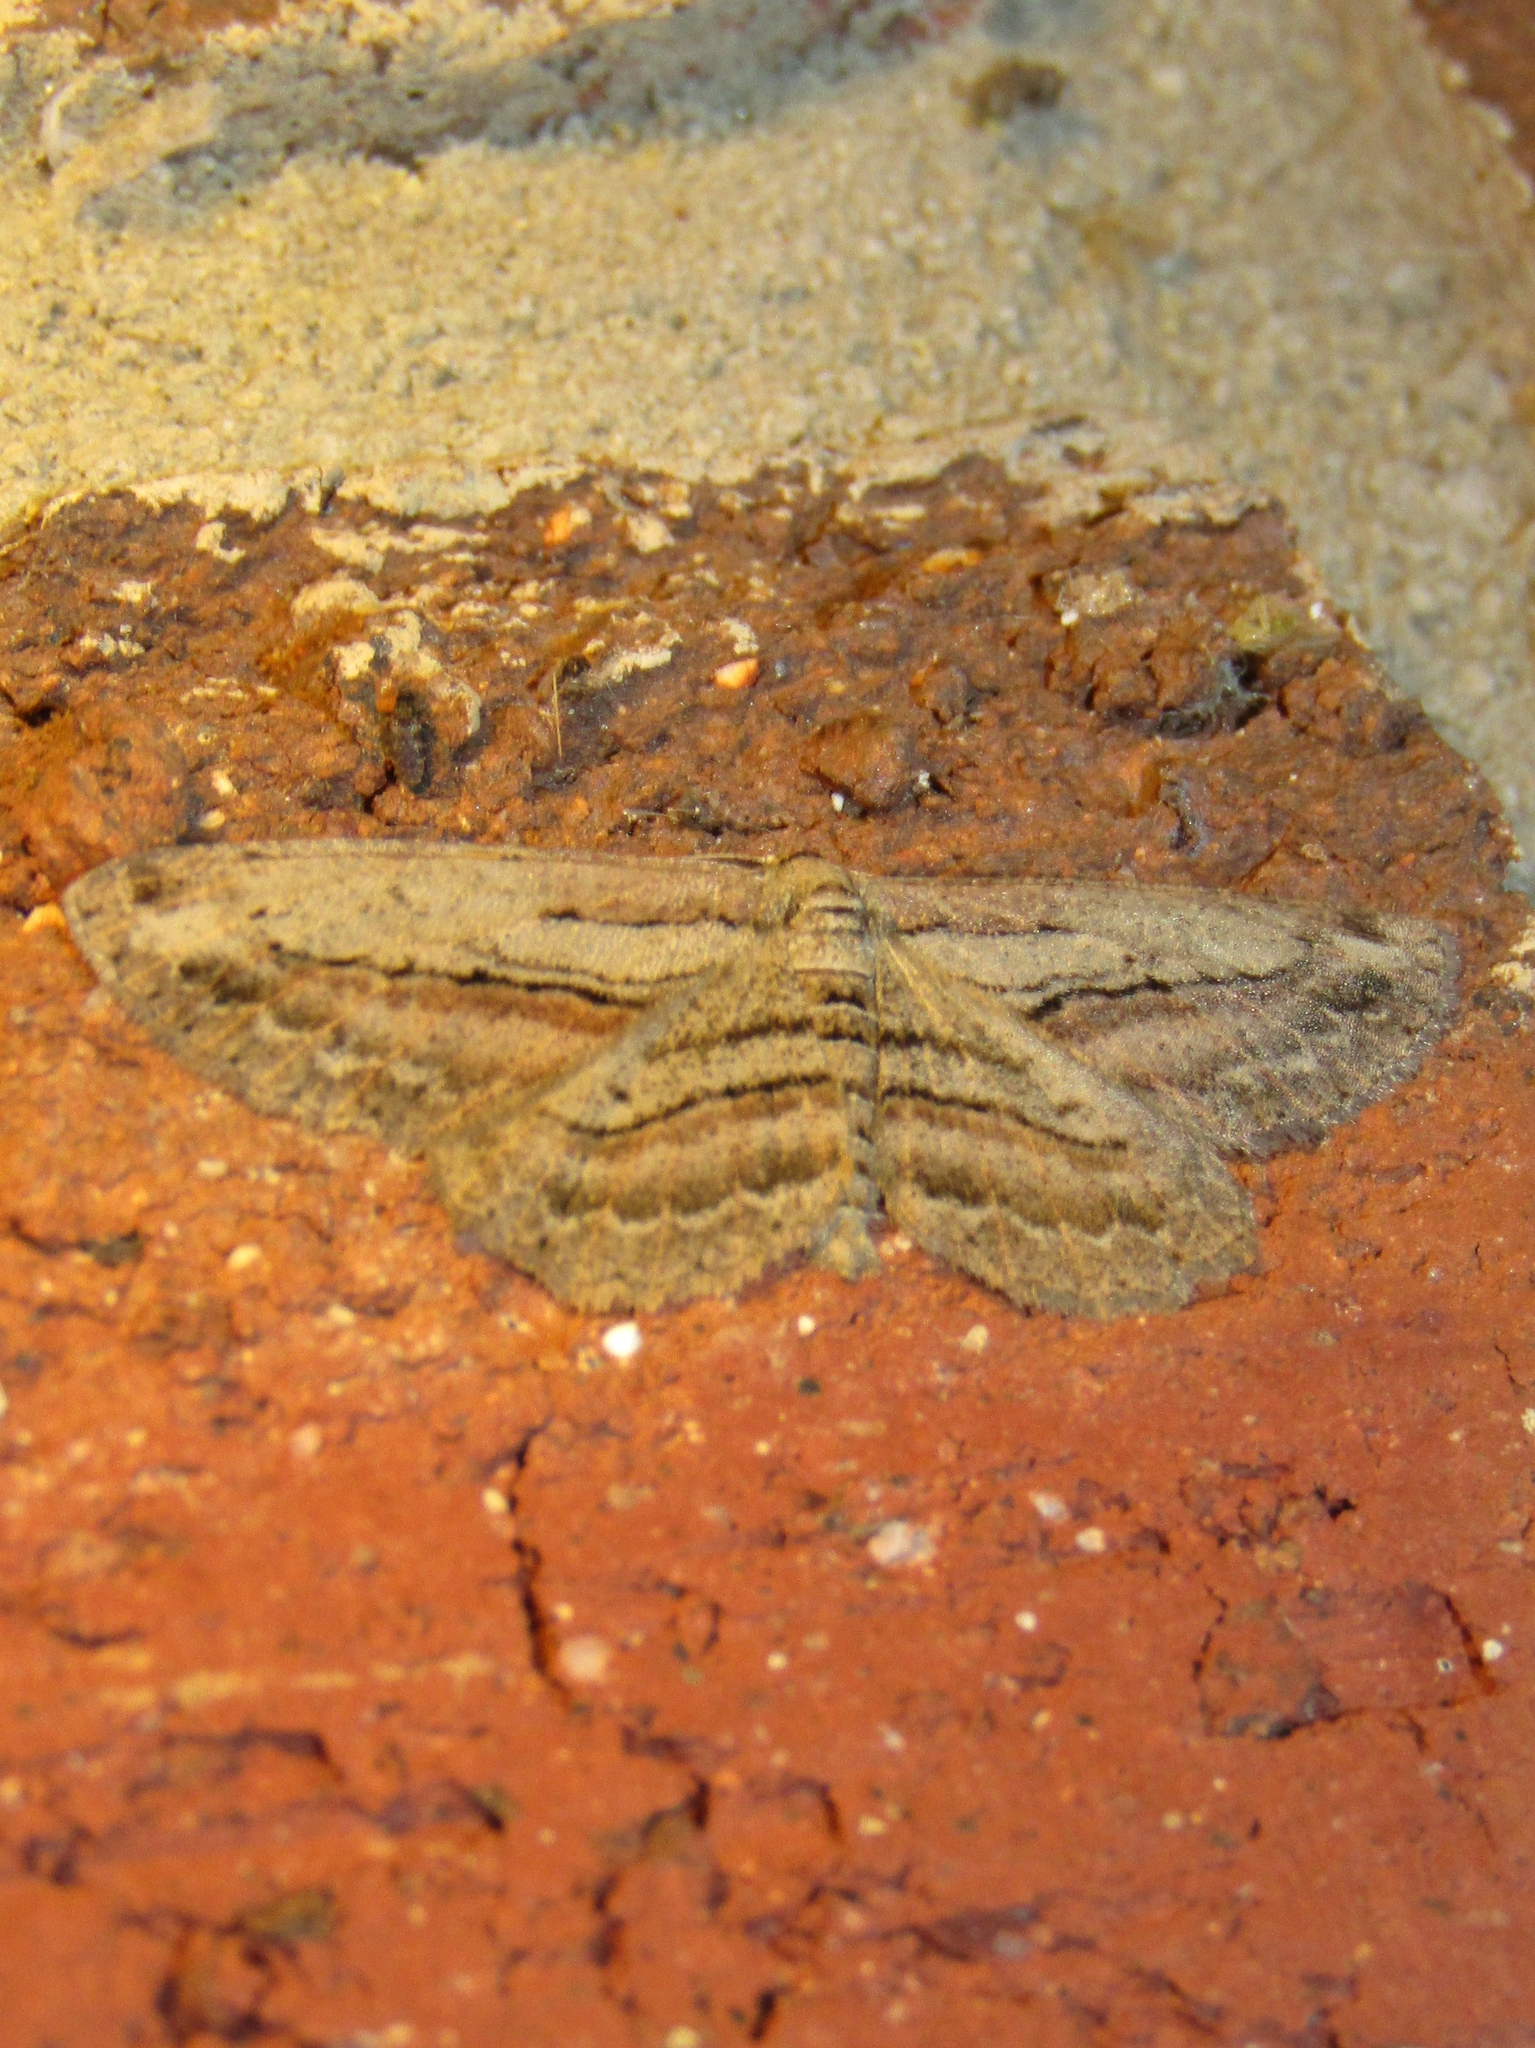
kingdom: Animalia
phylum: Arthropoda
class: Insecta
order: Lepidoptera
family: Geometridae
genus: Glena
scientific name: Glena plumosaria
